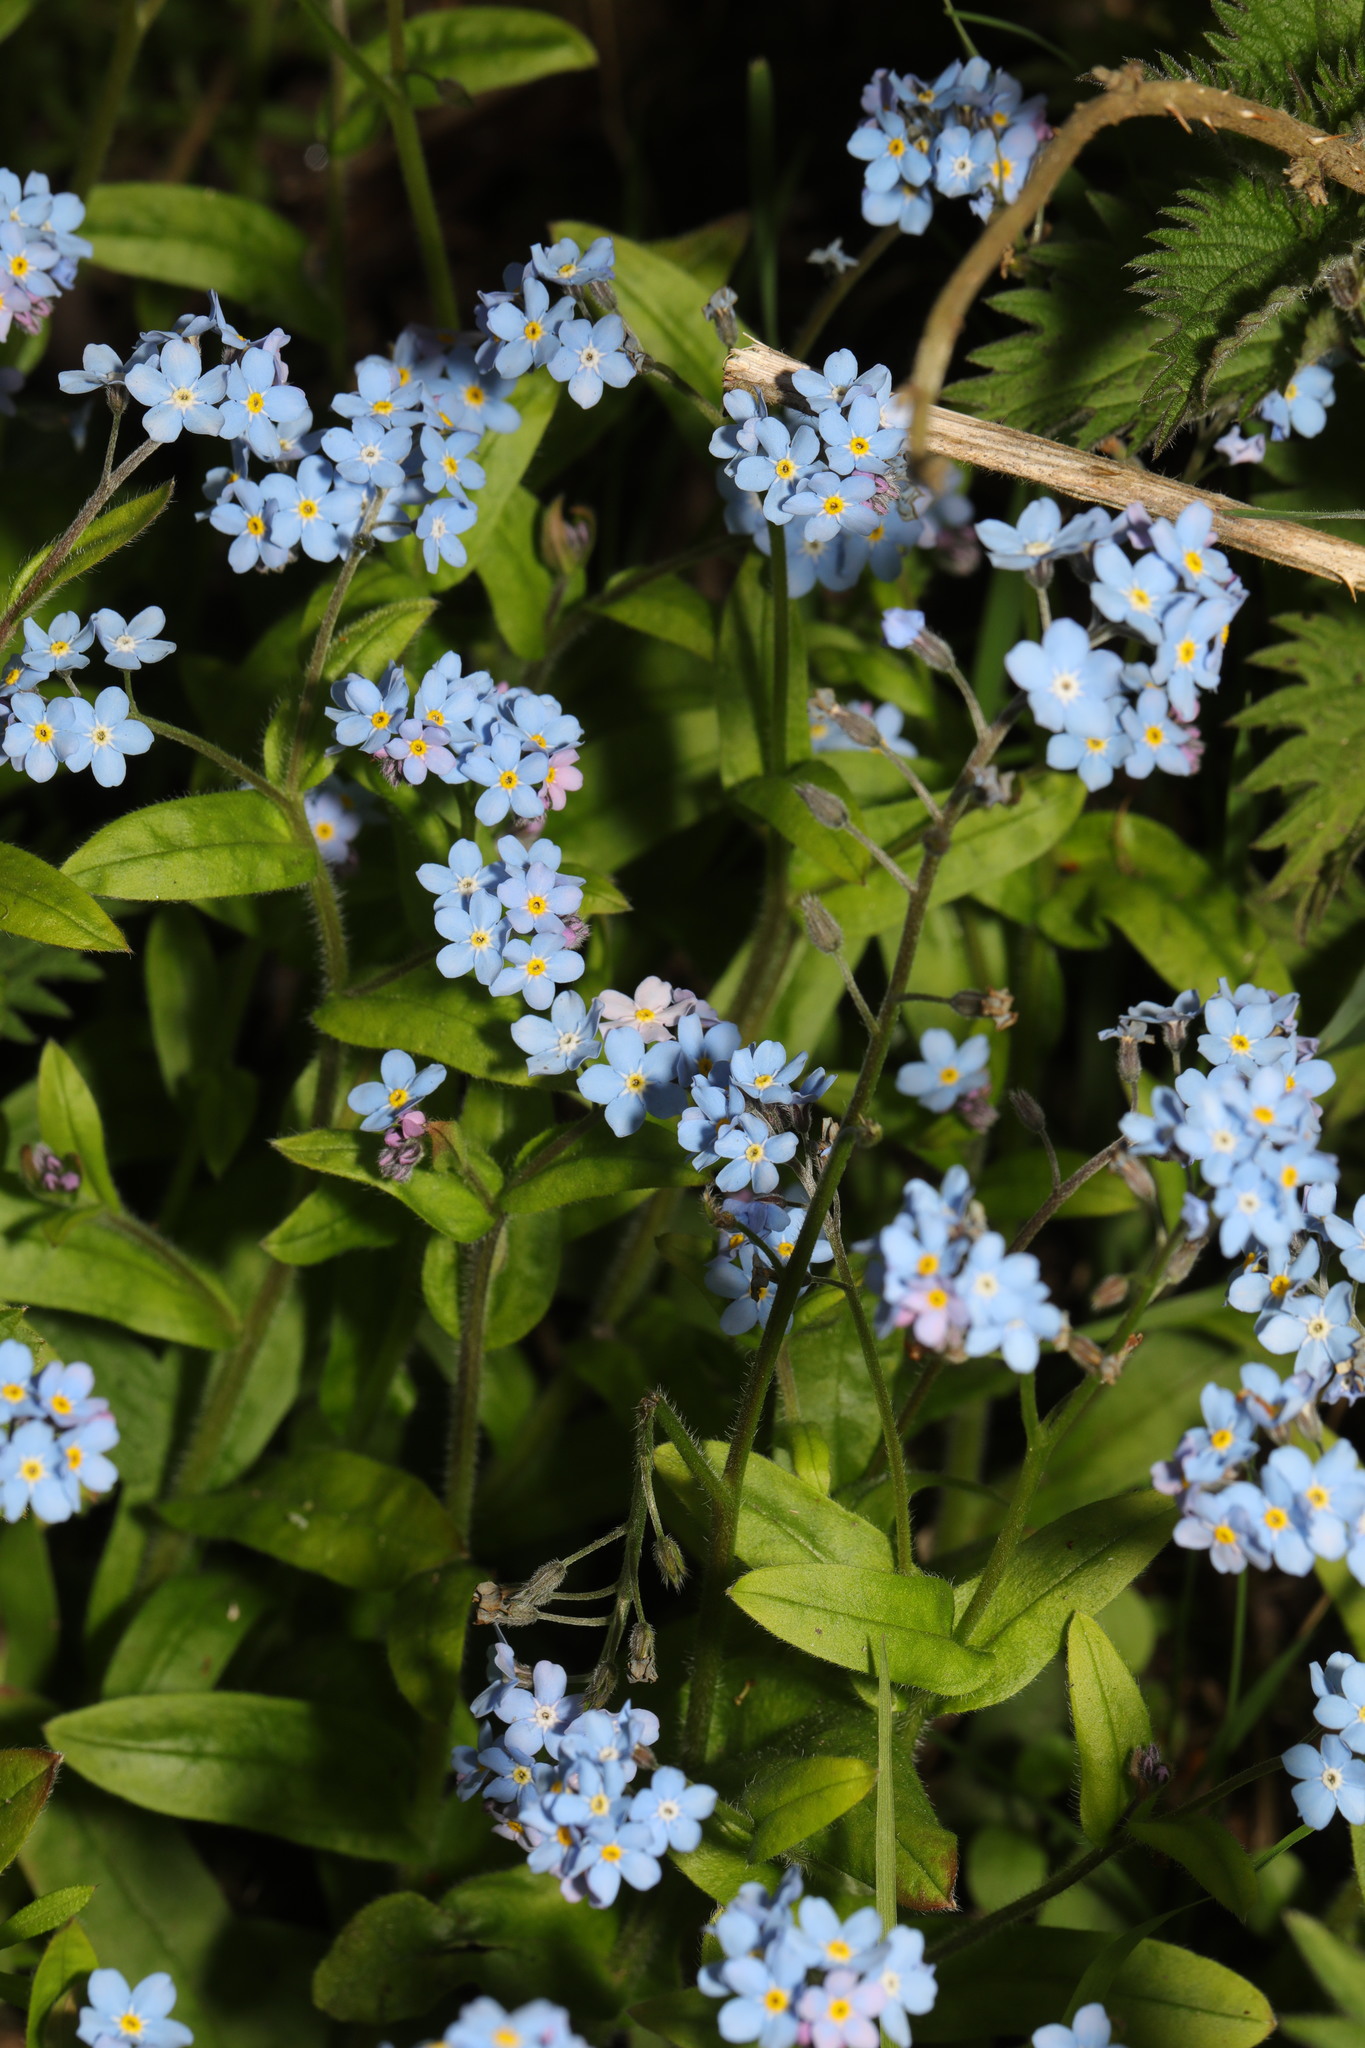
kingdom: Plantae
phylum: Tracheophyta
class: Magnoliopsida
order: Boraginales
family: Boraginaceae
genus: Myosotis
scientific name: Myosotis sylvatica
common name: Wood forget-me-not
